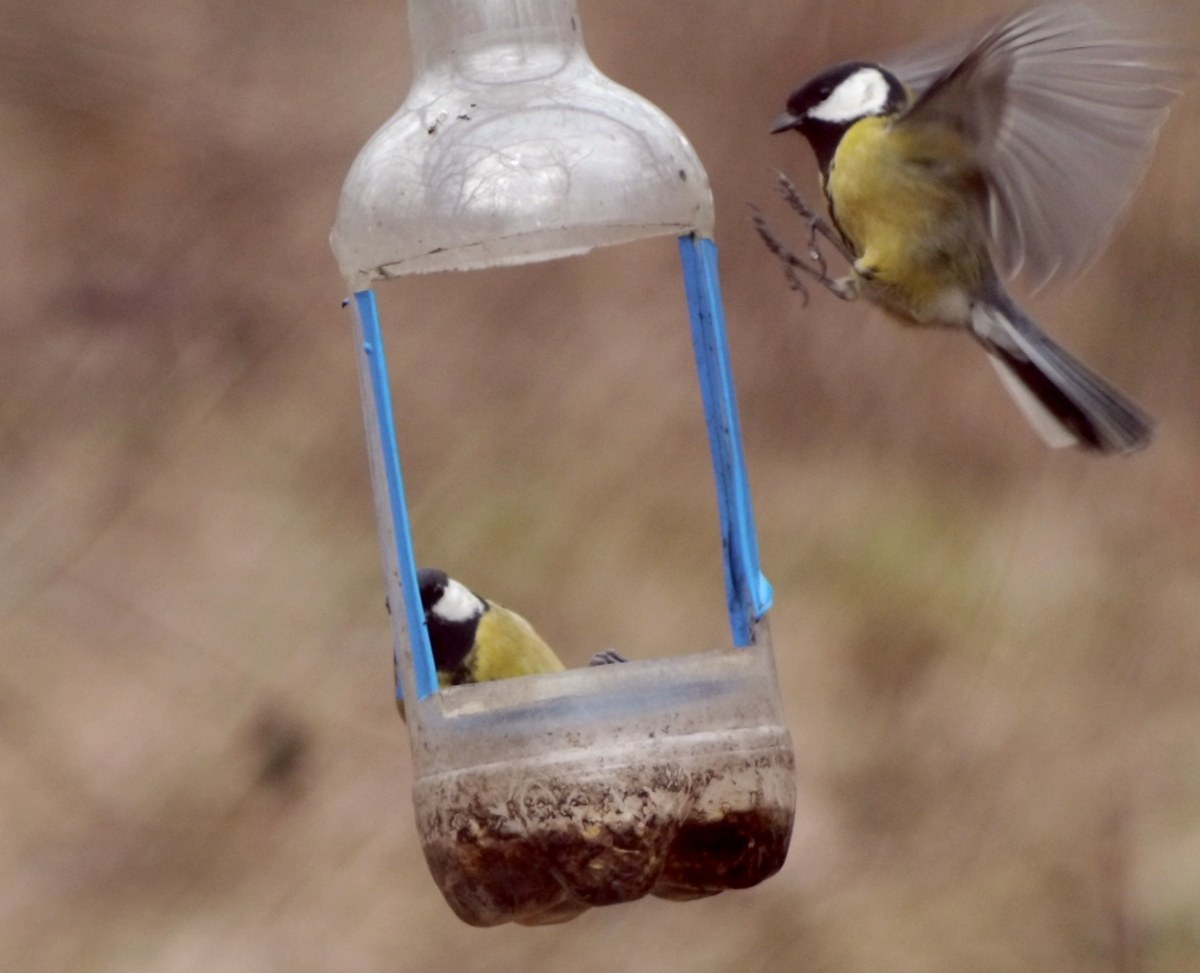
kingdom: Animalia
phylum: Chordata
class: Aves
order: Passeriformes
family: Paridae
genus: Parus
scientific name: Parus major
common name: Great tit
